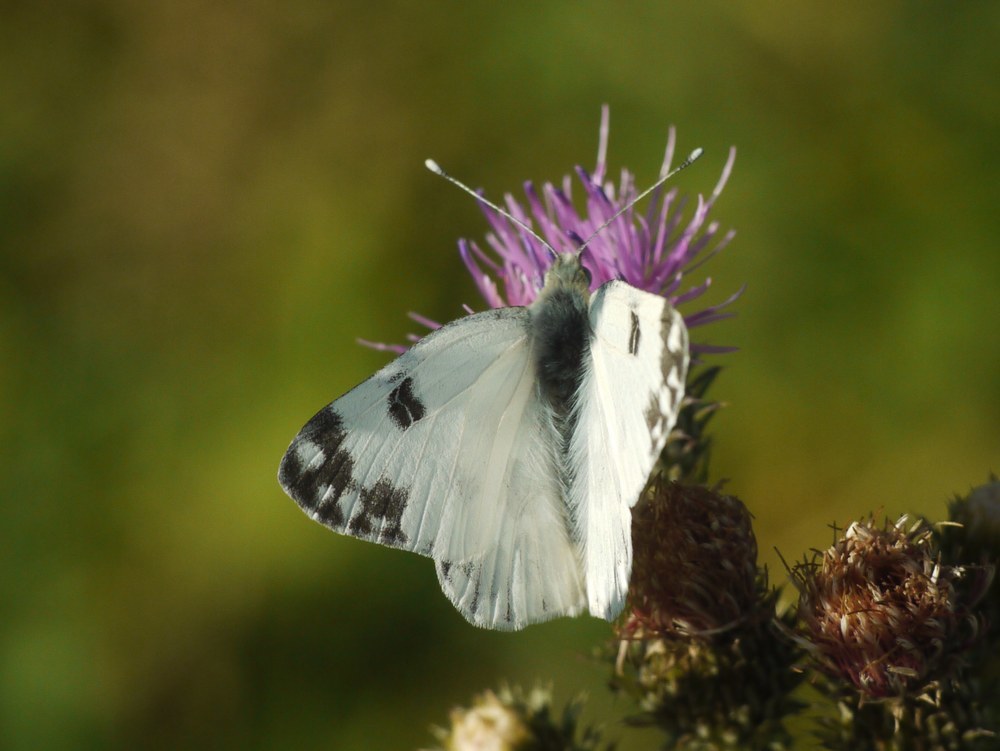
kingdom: Animalia
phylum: Arthropoda
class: Insecta
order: Lepidoptera
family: Pieridae
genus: Pontia
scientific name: Pontia edusa
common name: Eastern bath white
